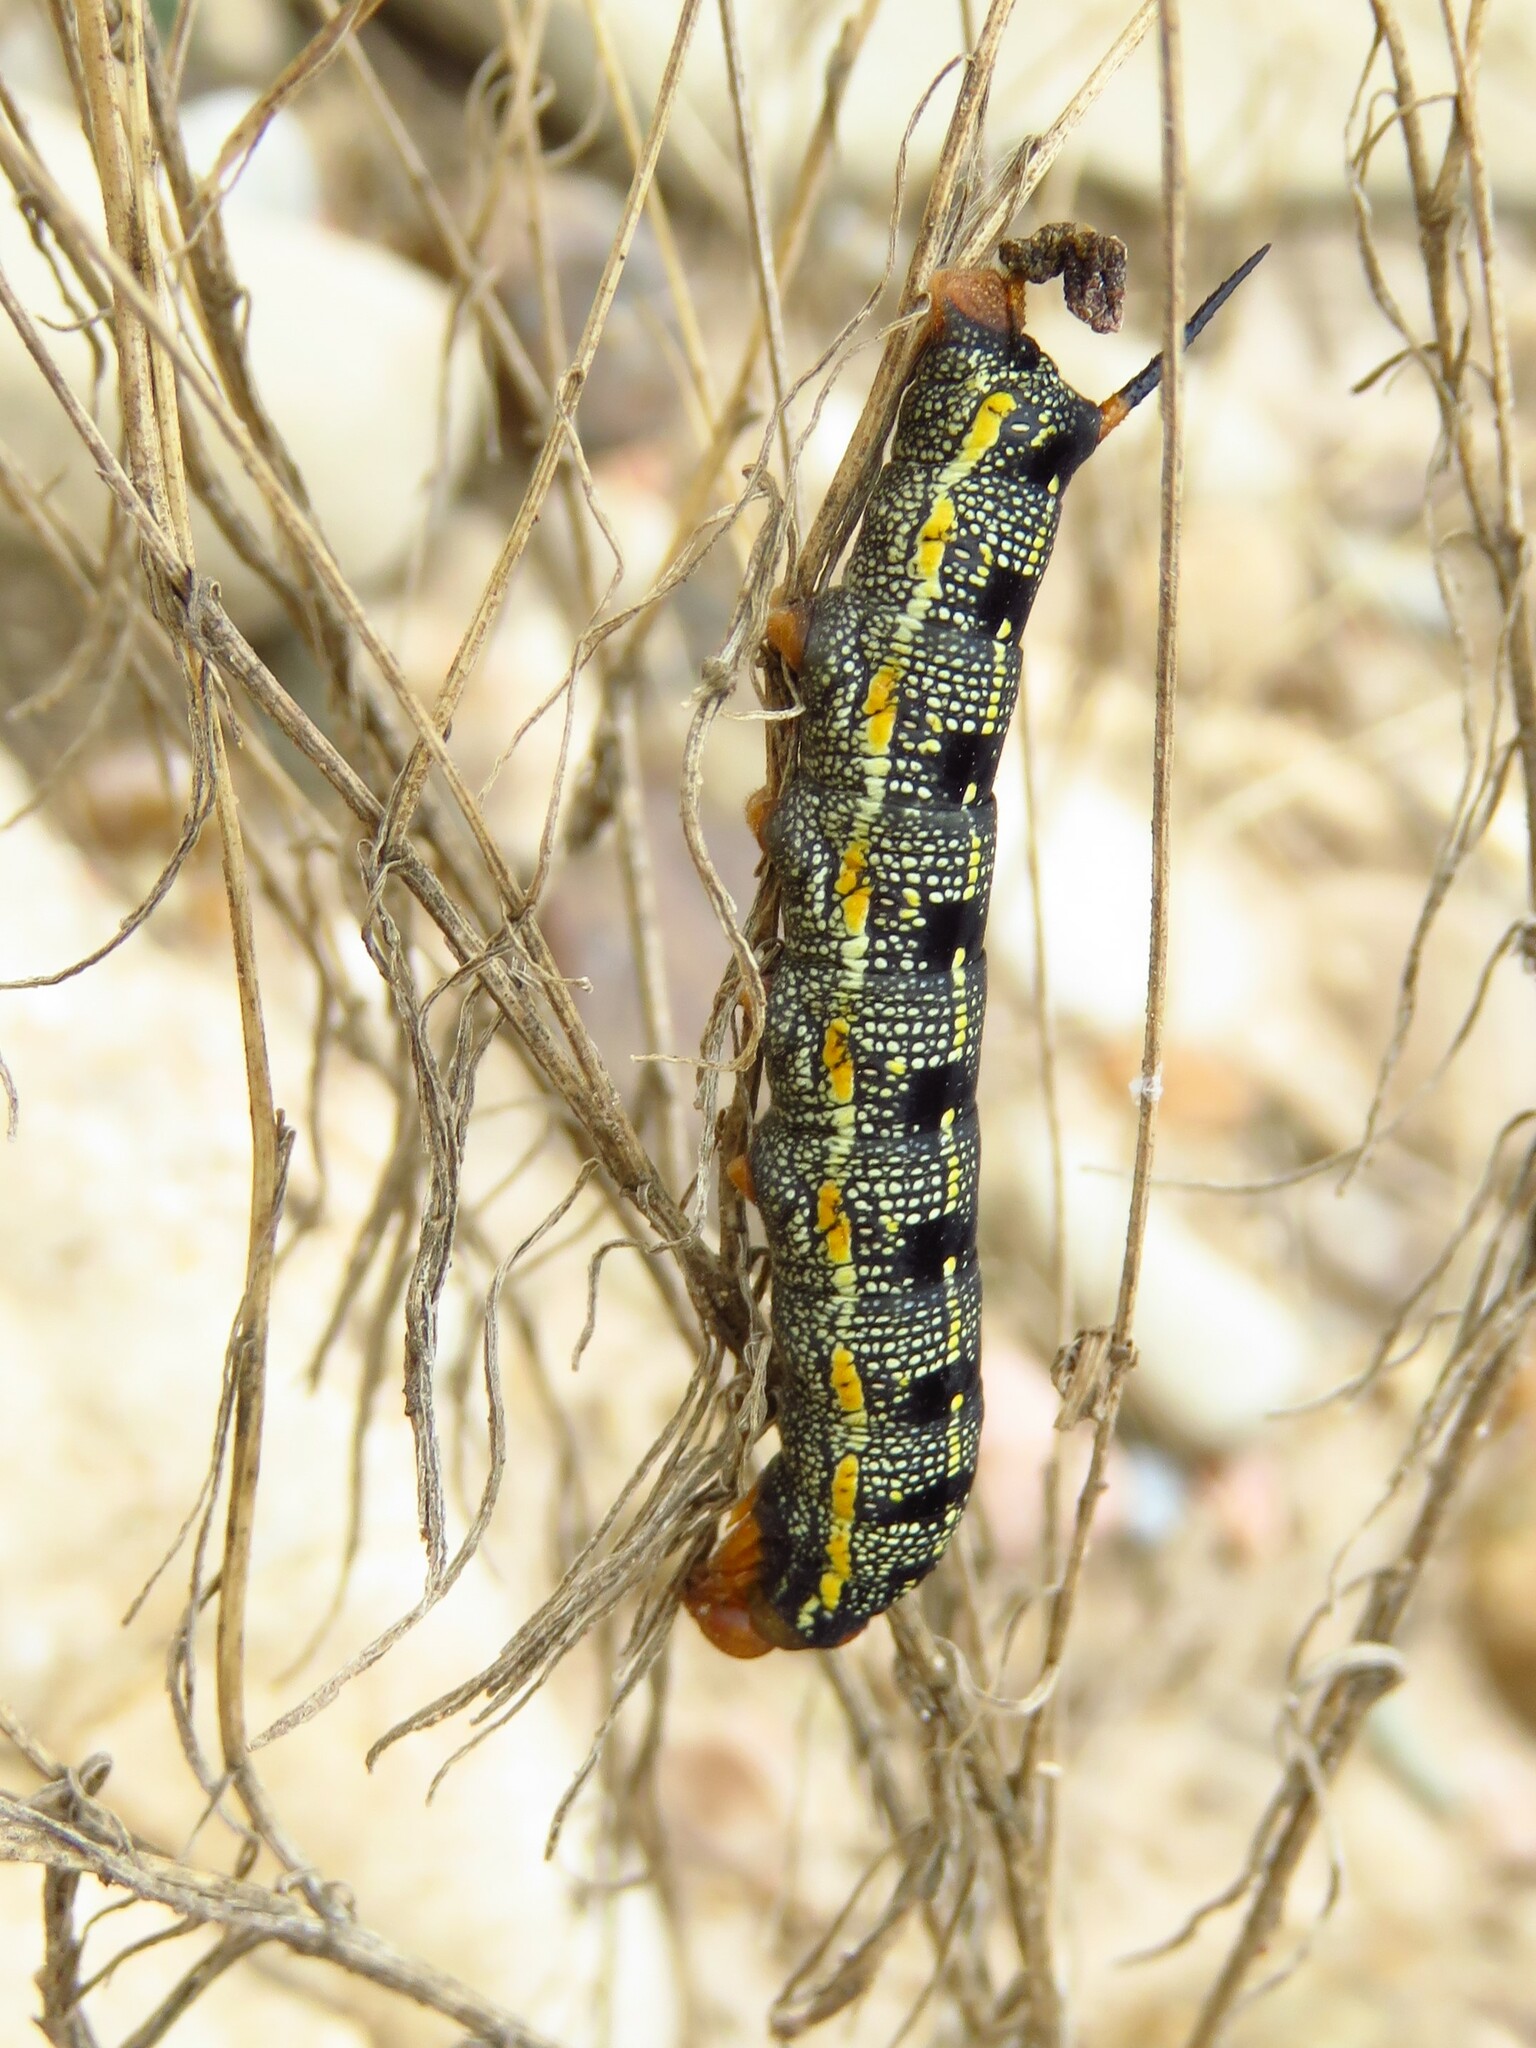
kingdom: Animalia
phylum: Arthropoda
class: Insecta
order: Lepidoptera
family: Sphingidae
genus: Hyles
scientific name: Hyles lineata
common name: White-lined sphinx
